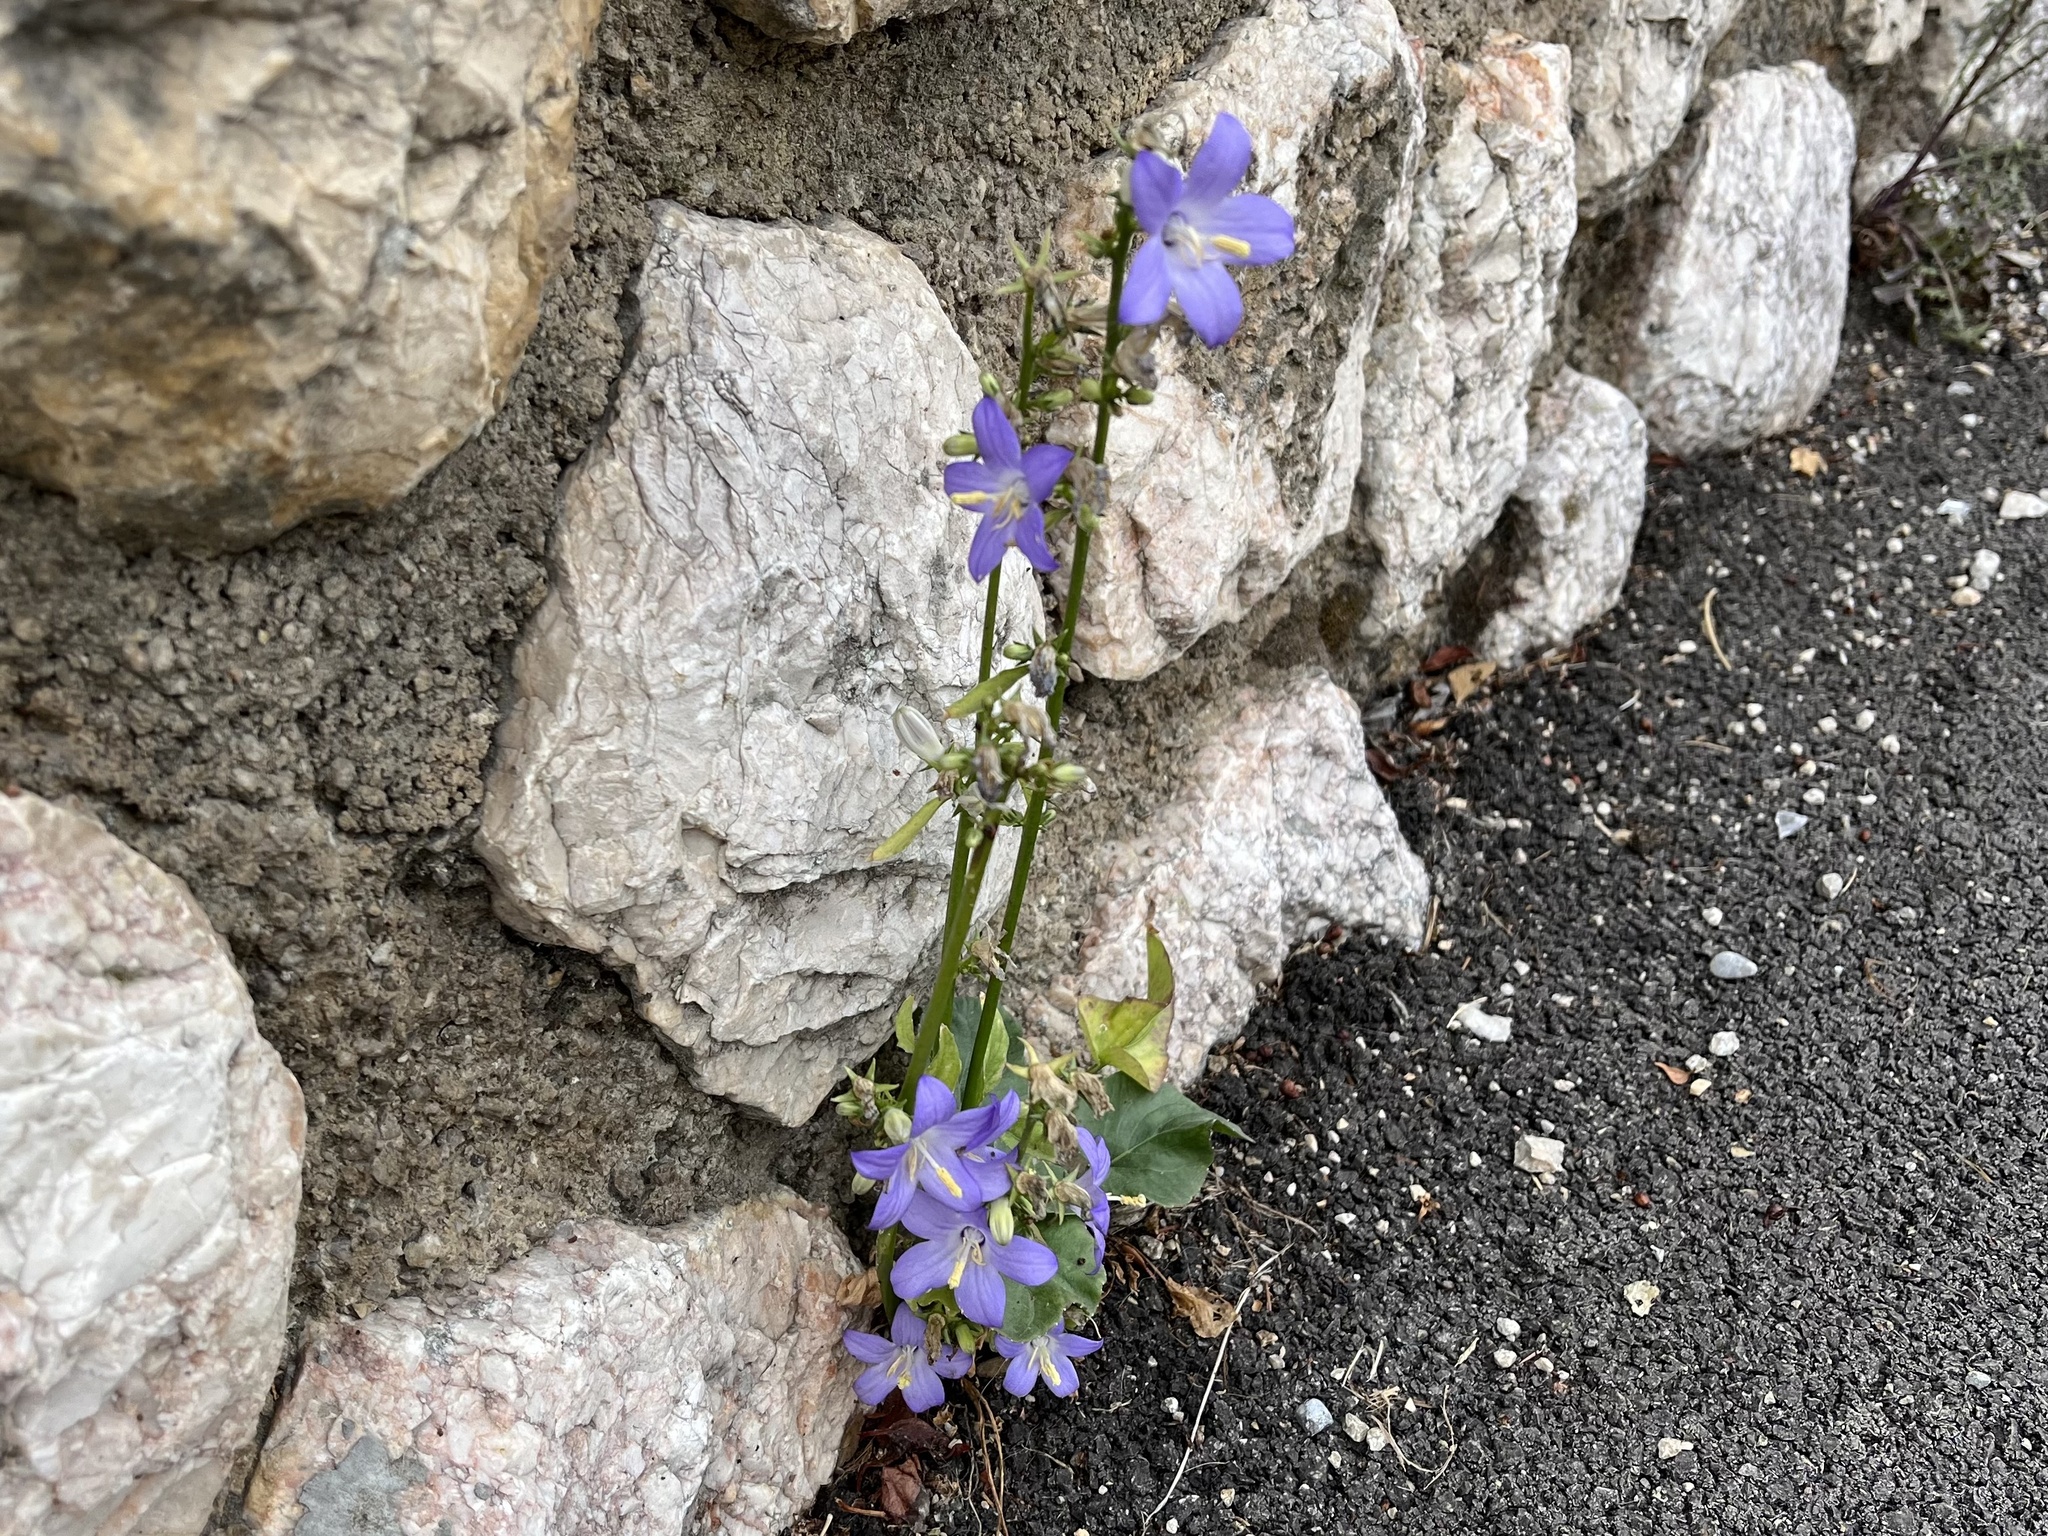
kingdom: Plantae
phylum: Tracheophyta
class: Magnoliopsida
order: Asterales
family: Campanulaceae
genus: Campanula
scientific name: Campanula pyramidalis
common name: Chimney bellflower
